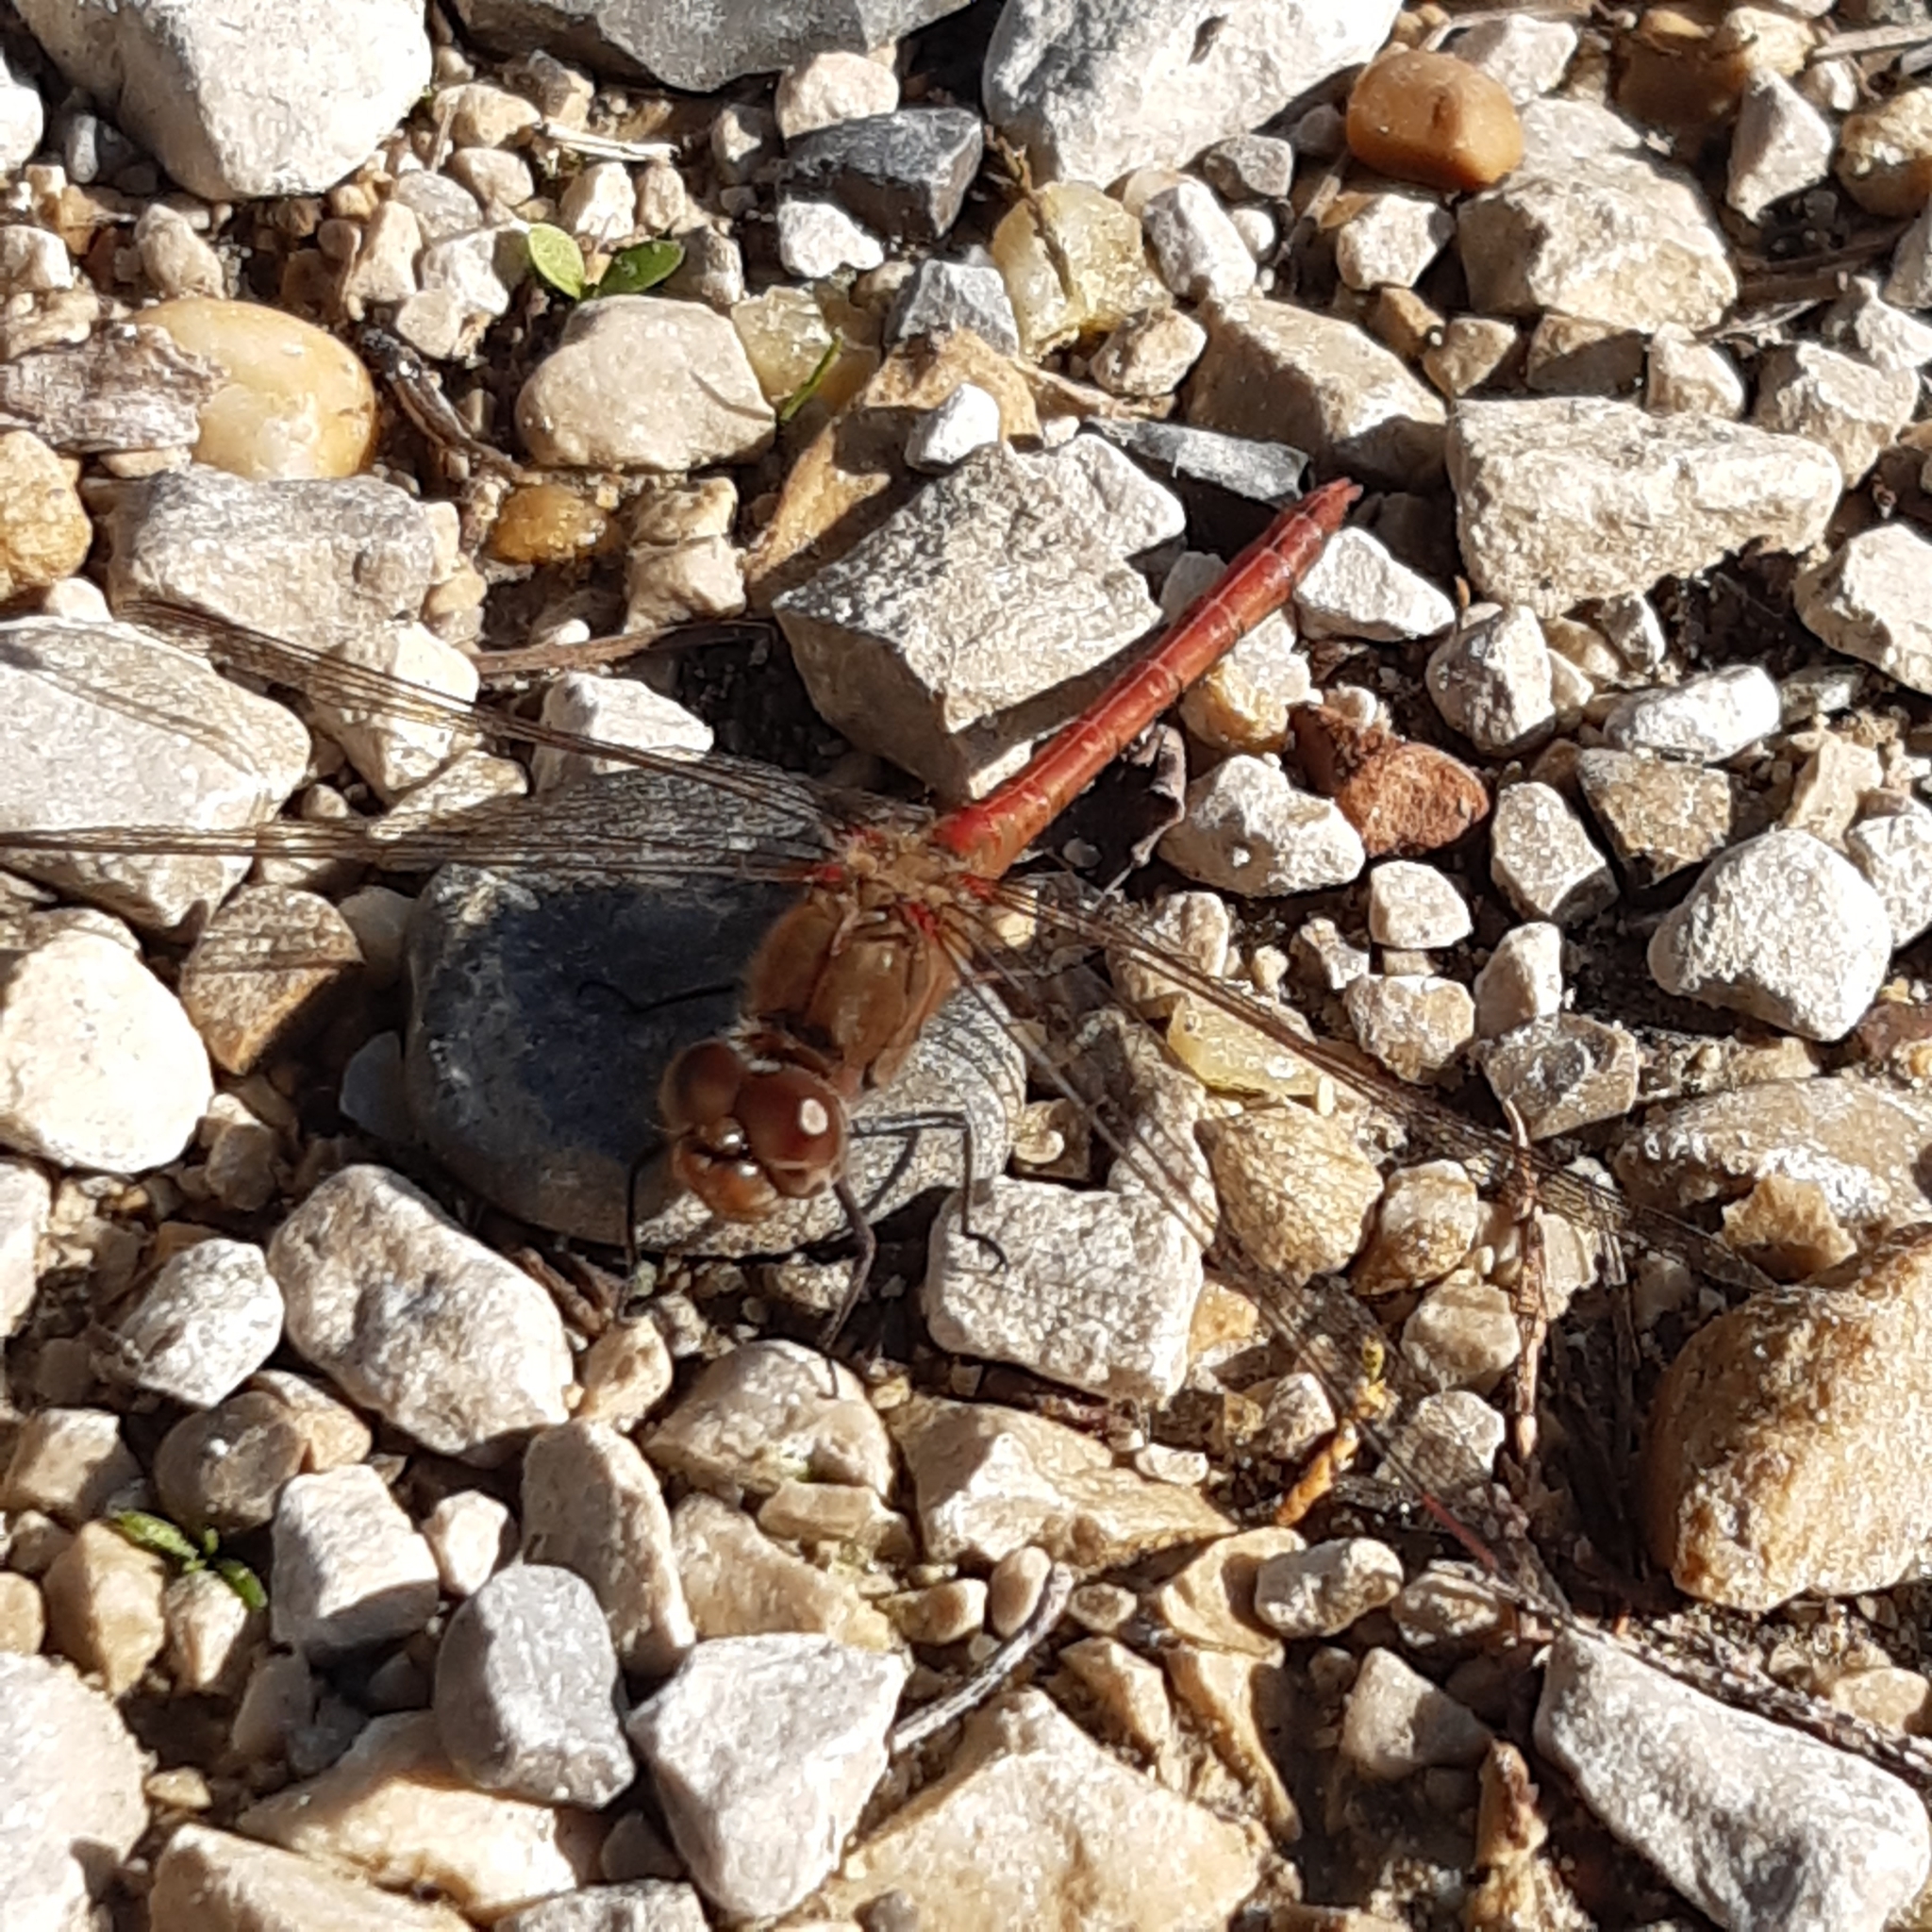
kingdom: Animalia
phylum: Arthropoda
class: Insecta
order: Odonata
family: Libellulidae
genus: Sympetrum
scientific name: Sympetrum striolatum
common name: Common darter
